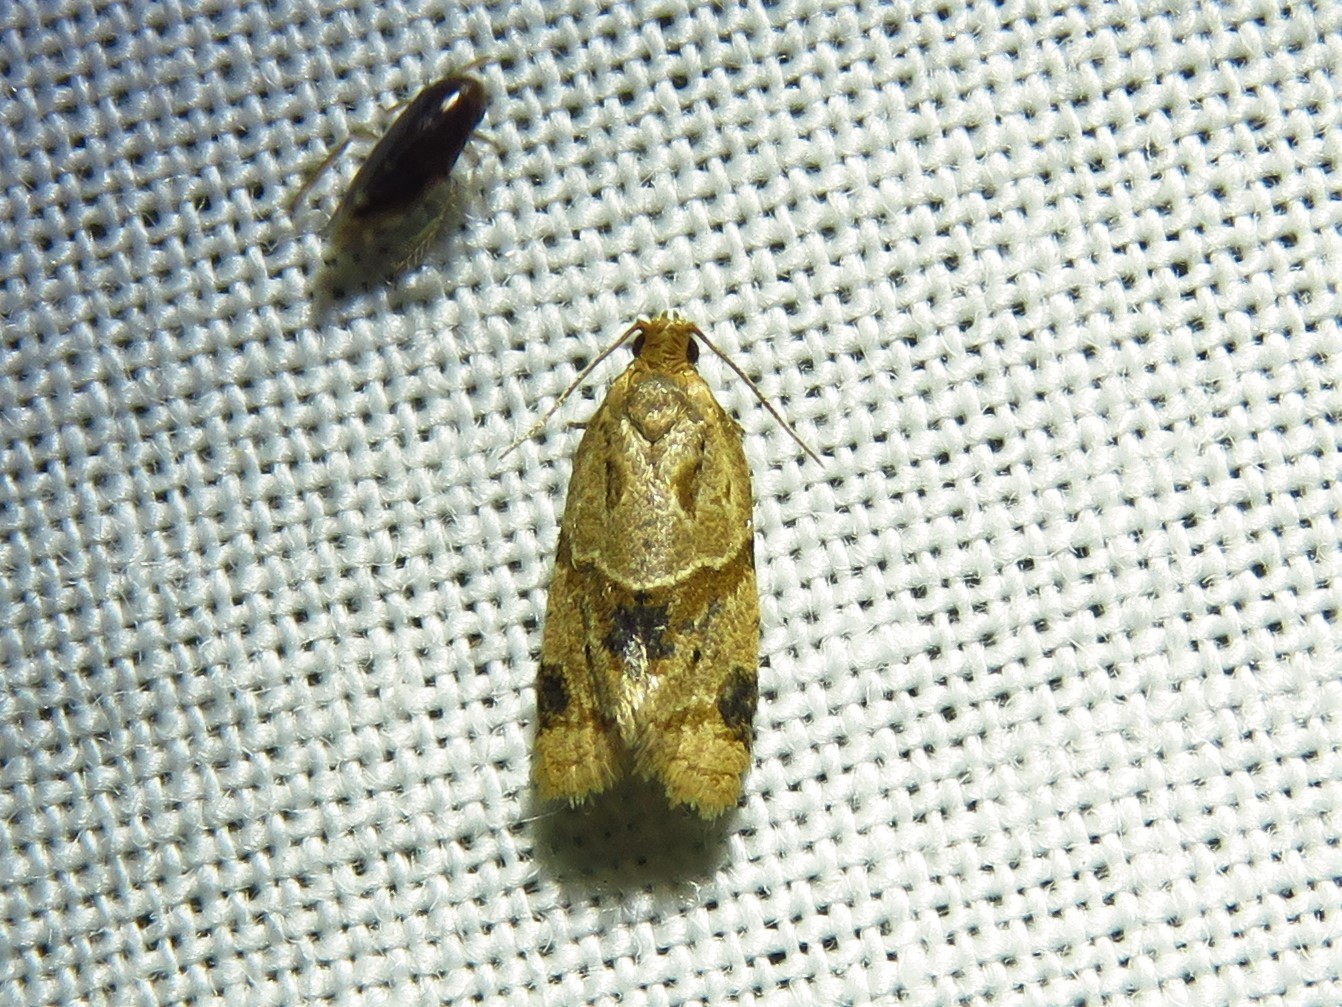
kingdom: Animalia
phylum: Arthropoda
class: Insecta
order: Lepidoptera
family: Tortricidae
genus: Clepsis
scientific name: Clepsis peritana
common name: Garden tortrix
